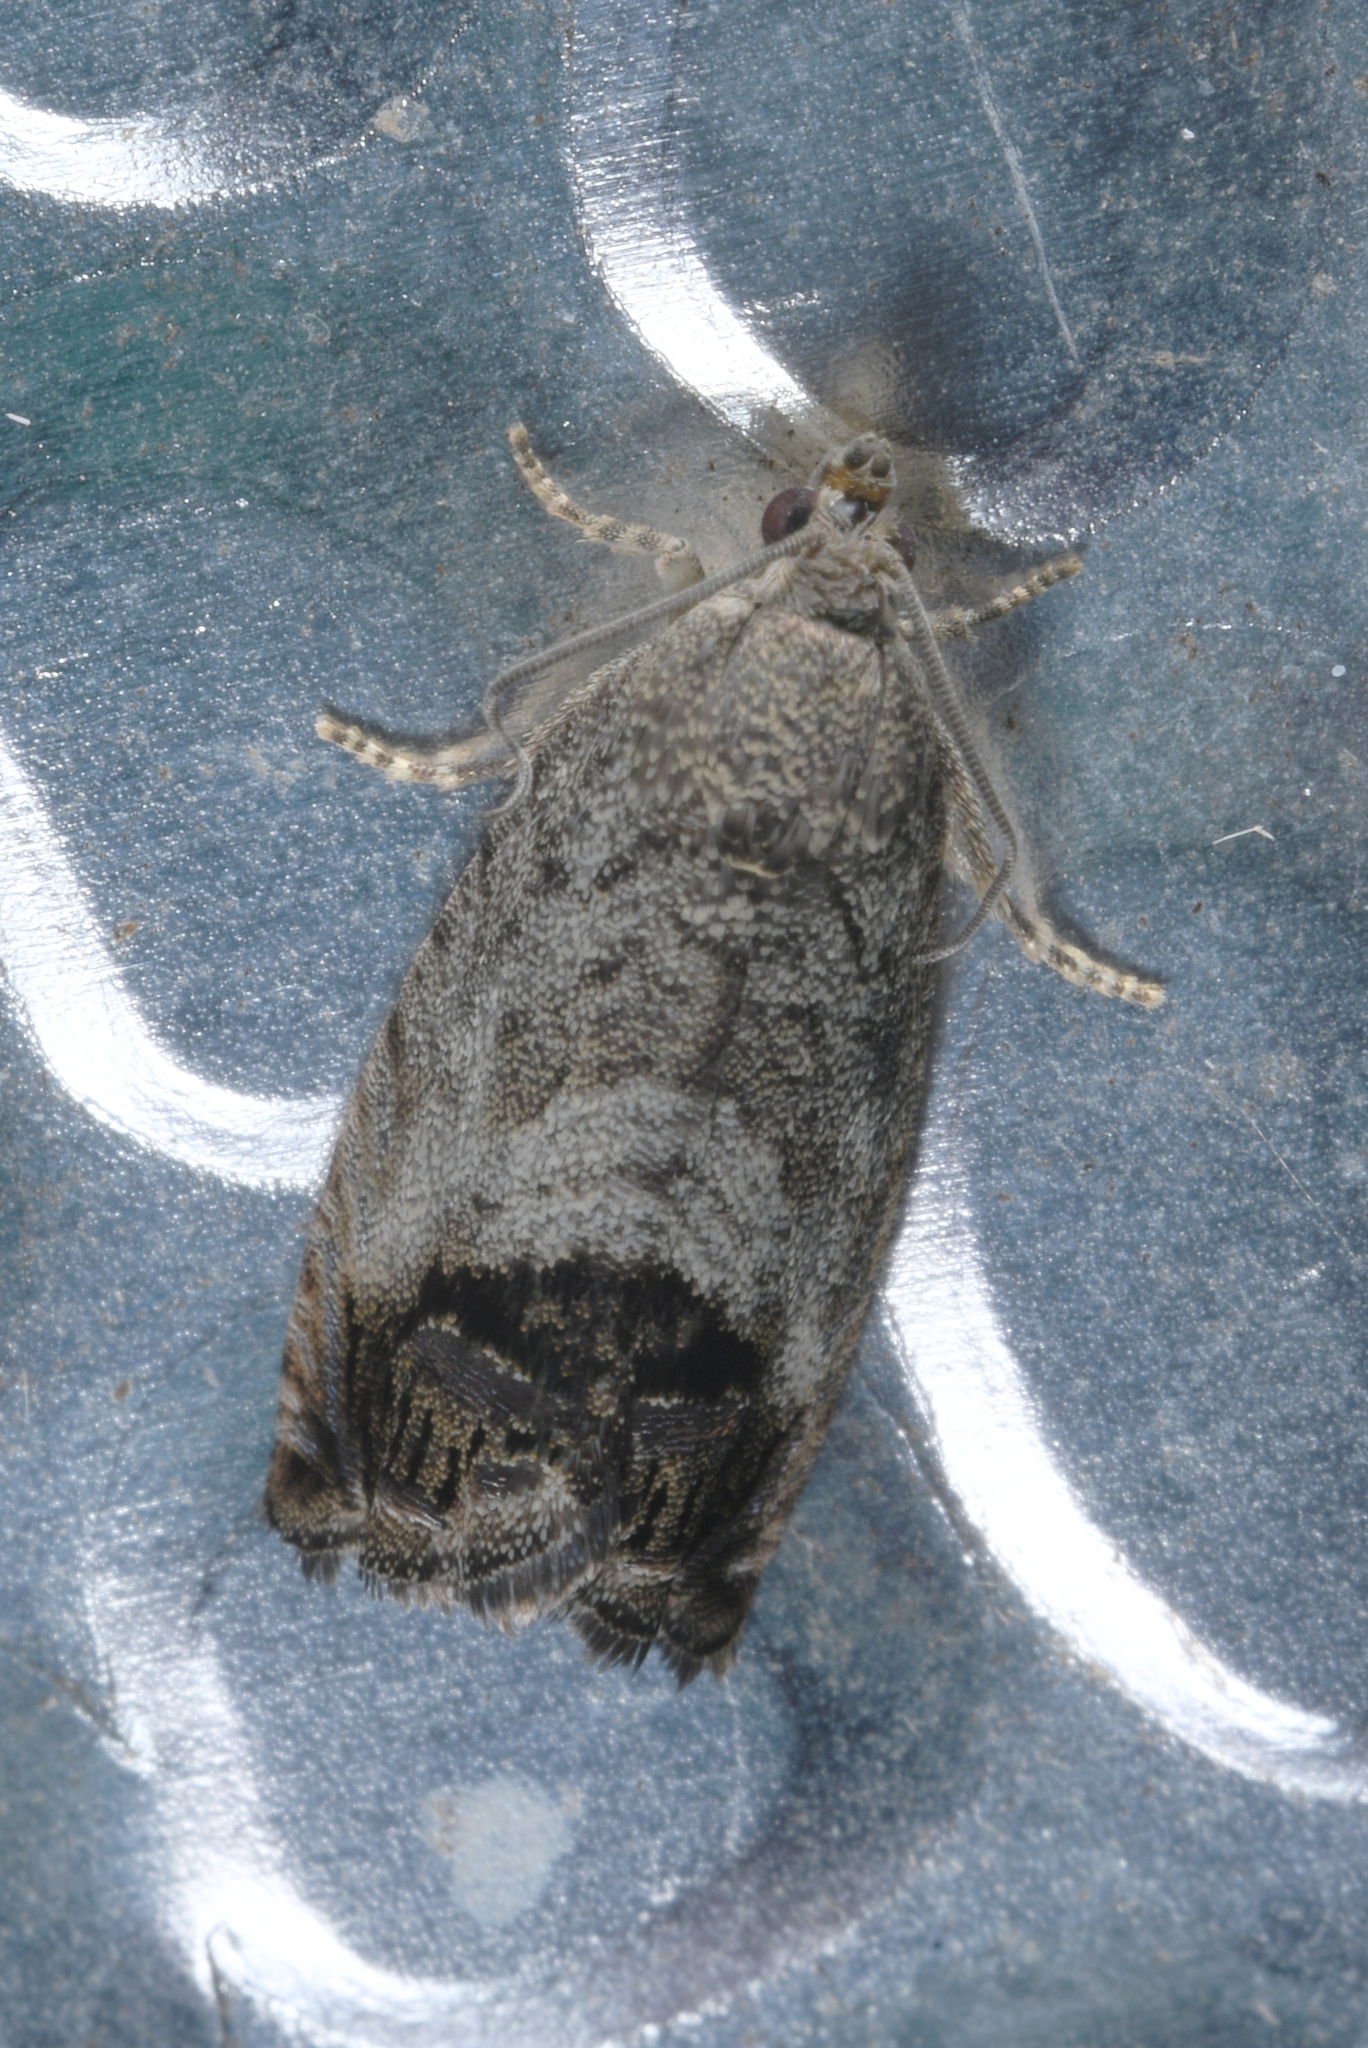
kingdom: Animalia
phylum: Arthropoda
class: Insecta
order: Lepidoptera
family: Tortricidae
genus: Cydia
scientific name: Cydia splendana
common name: De: kastanienwickler, eichenwickler es: oruga de la castaña fr: carpocapse des châtaignes it: cidia o tortrice tardiva delle castagne pt: bichado das castanhas gb: acorn moth, chestnut fruit tortrix
